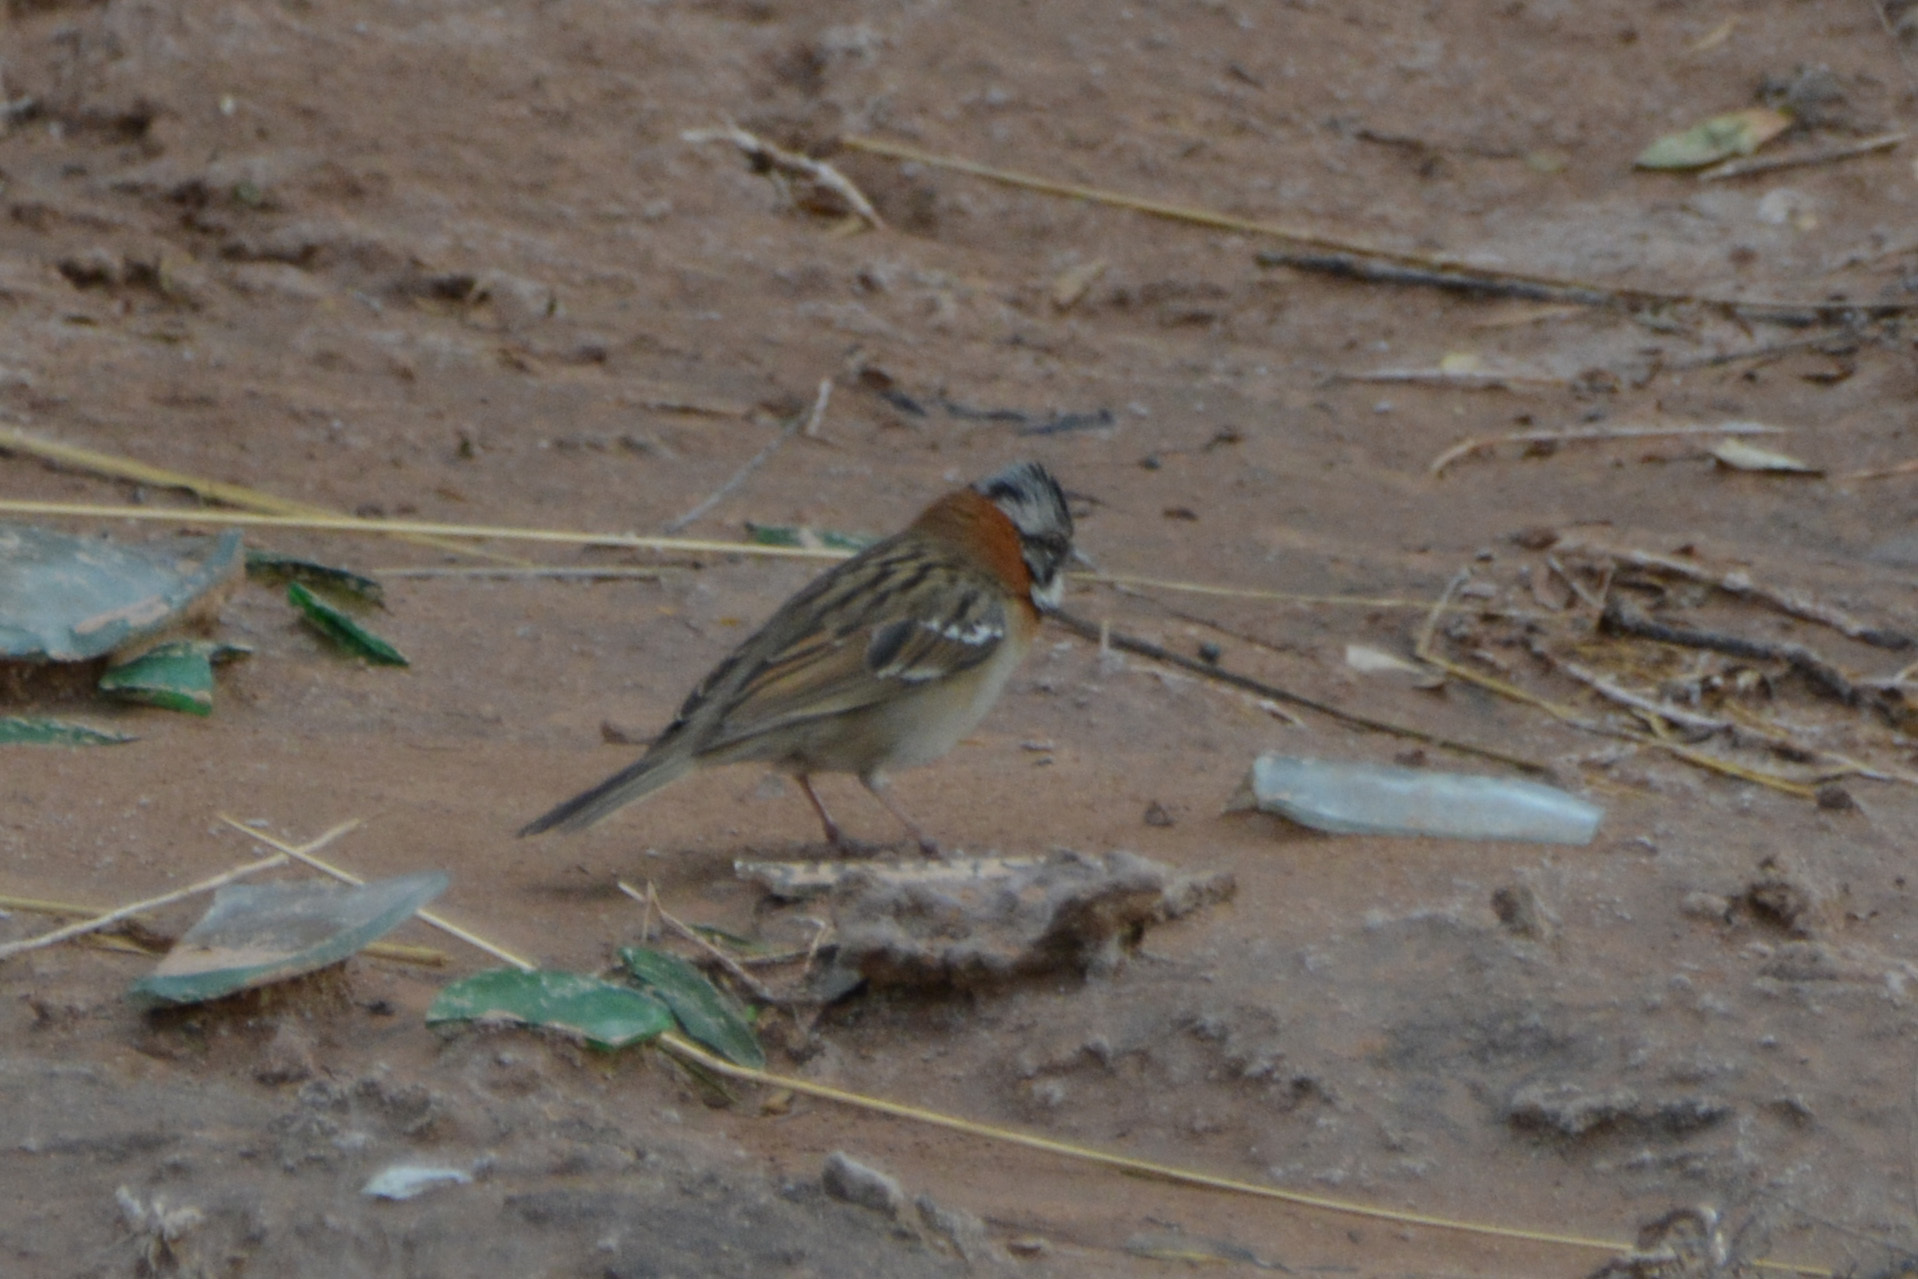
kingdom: Animalia
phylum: Chordata
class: Aves
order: Passeriformes
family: Passerellidae
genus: Zonotrichia
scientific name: Zonotrichia capensis
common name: Rufous-collared sparrow
